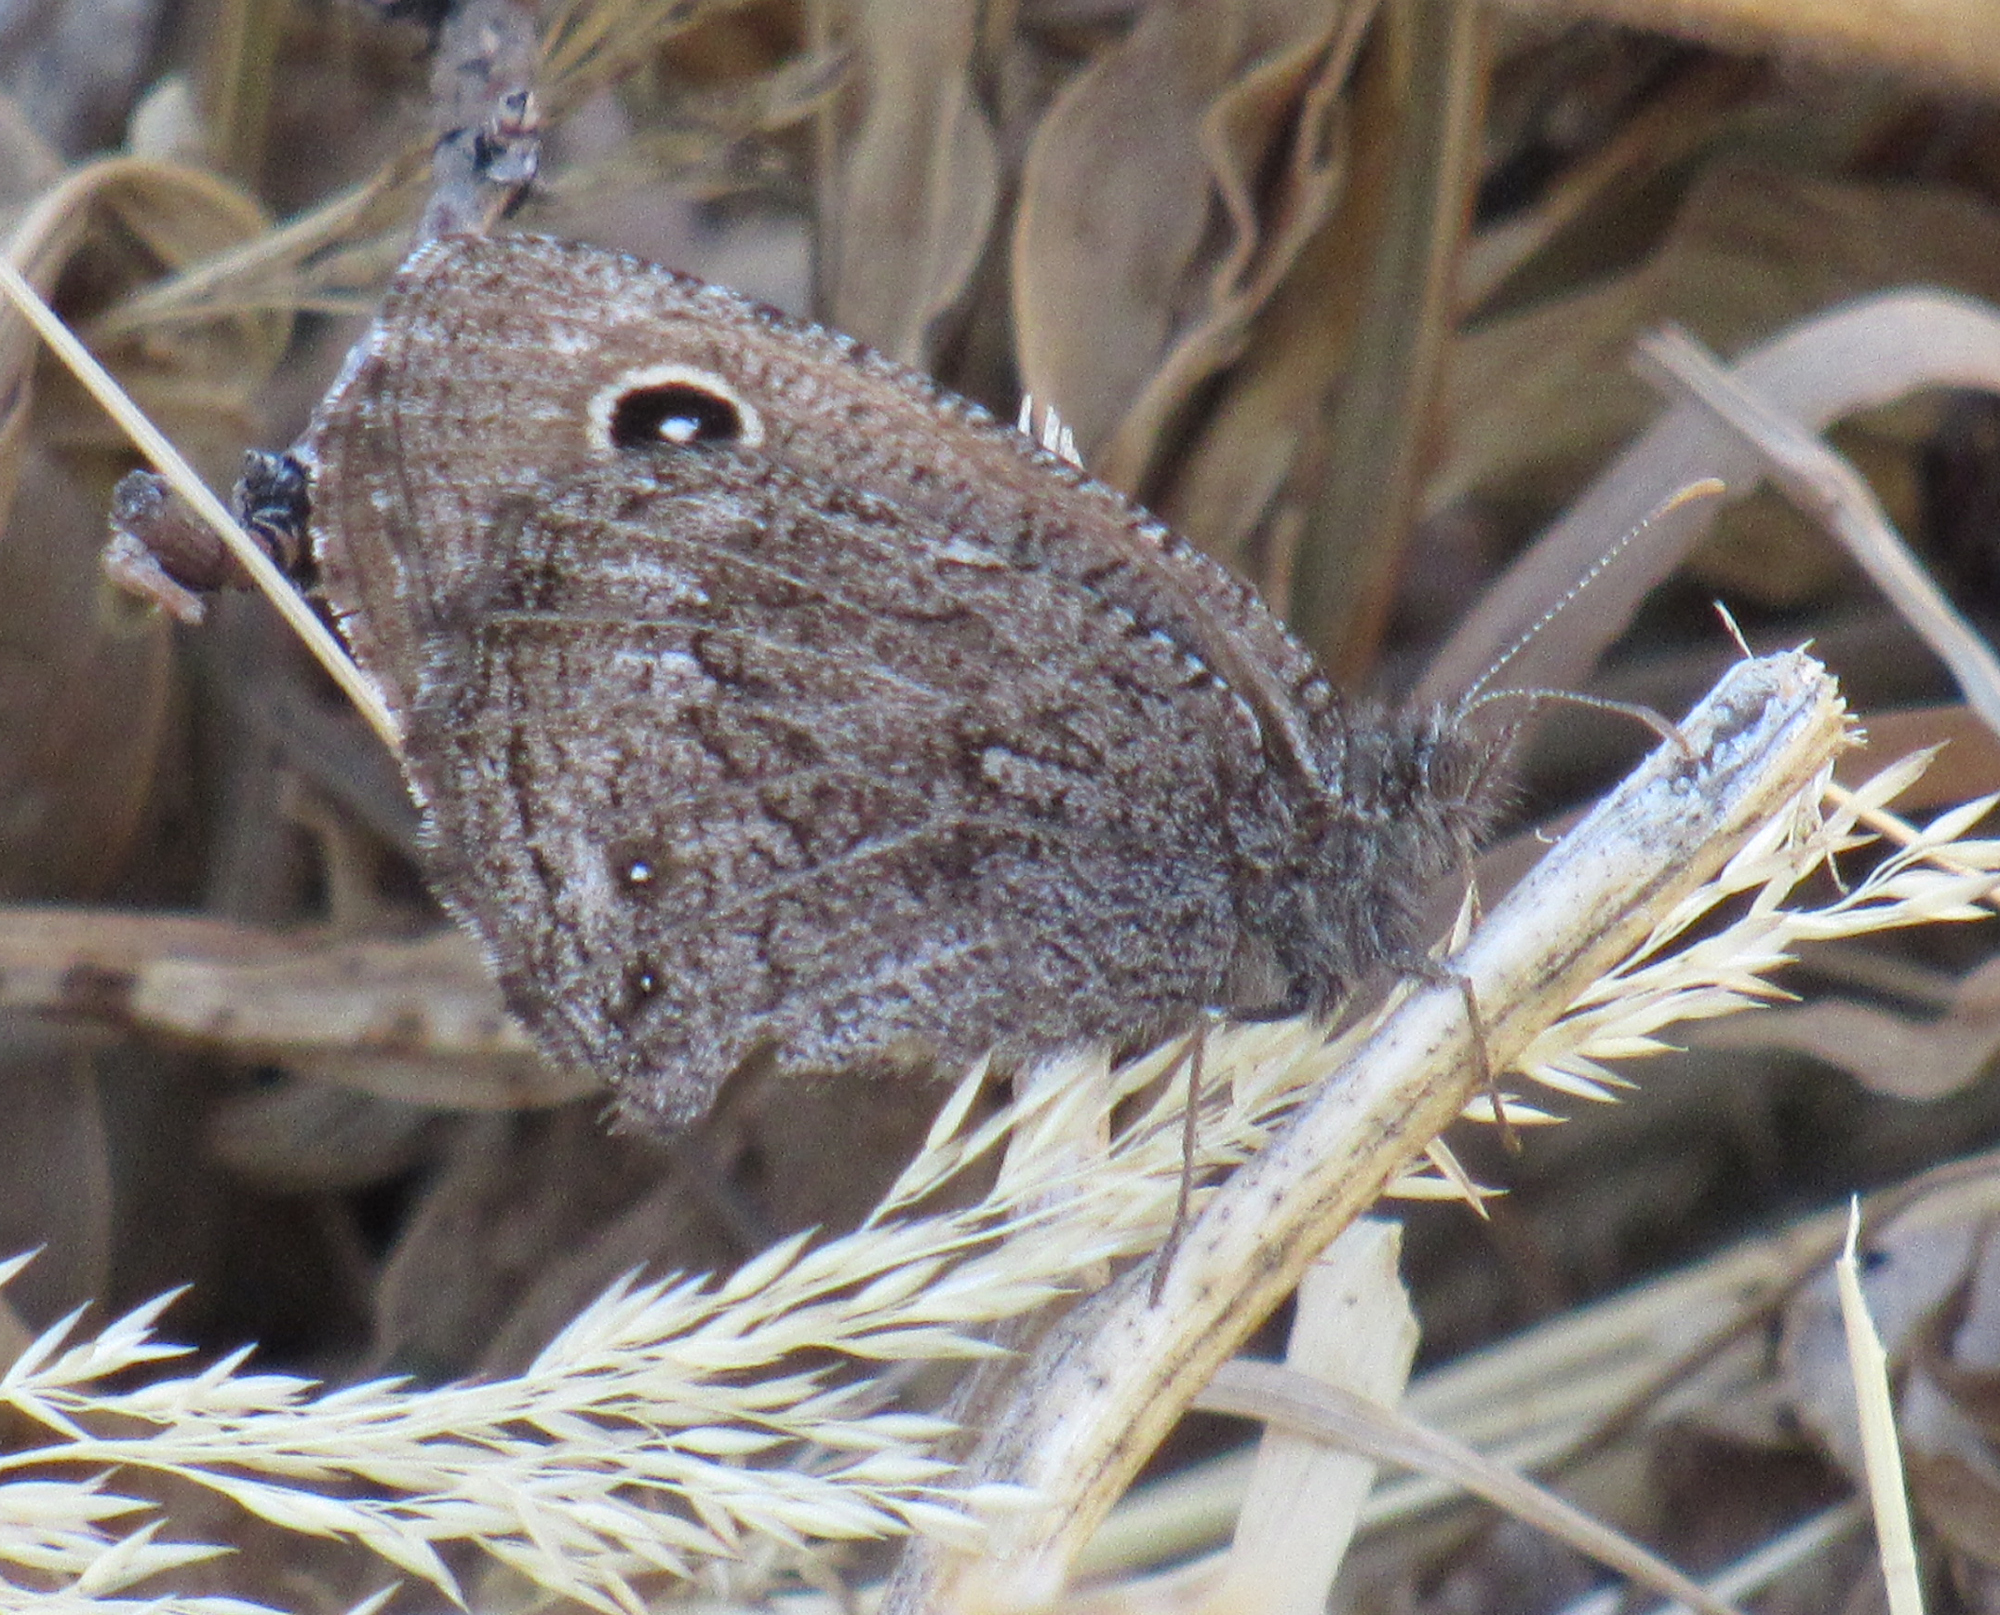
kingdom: Animalia
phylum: Arthropoda
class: Insecta
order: Lepidoptera
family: Nymphalidae
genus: Cercyonis
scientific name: Cercyonis oetus
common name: Small wood-nymph
